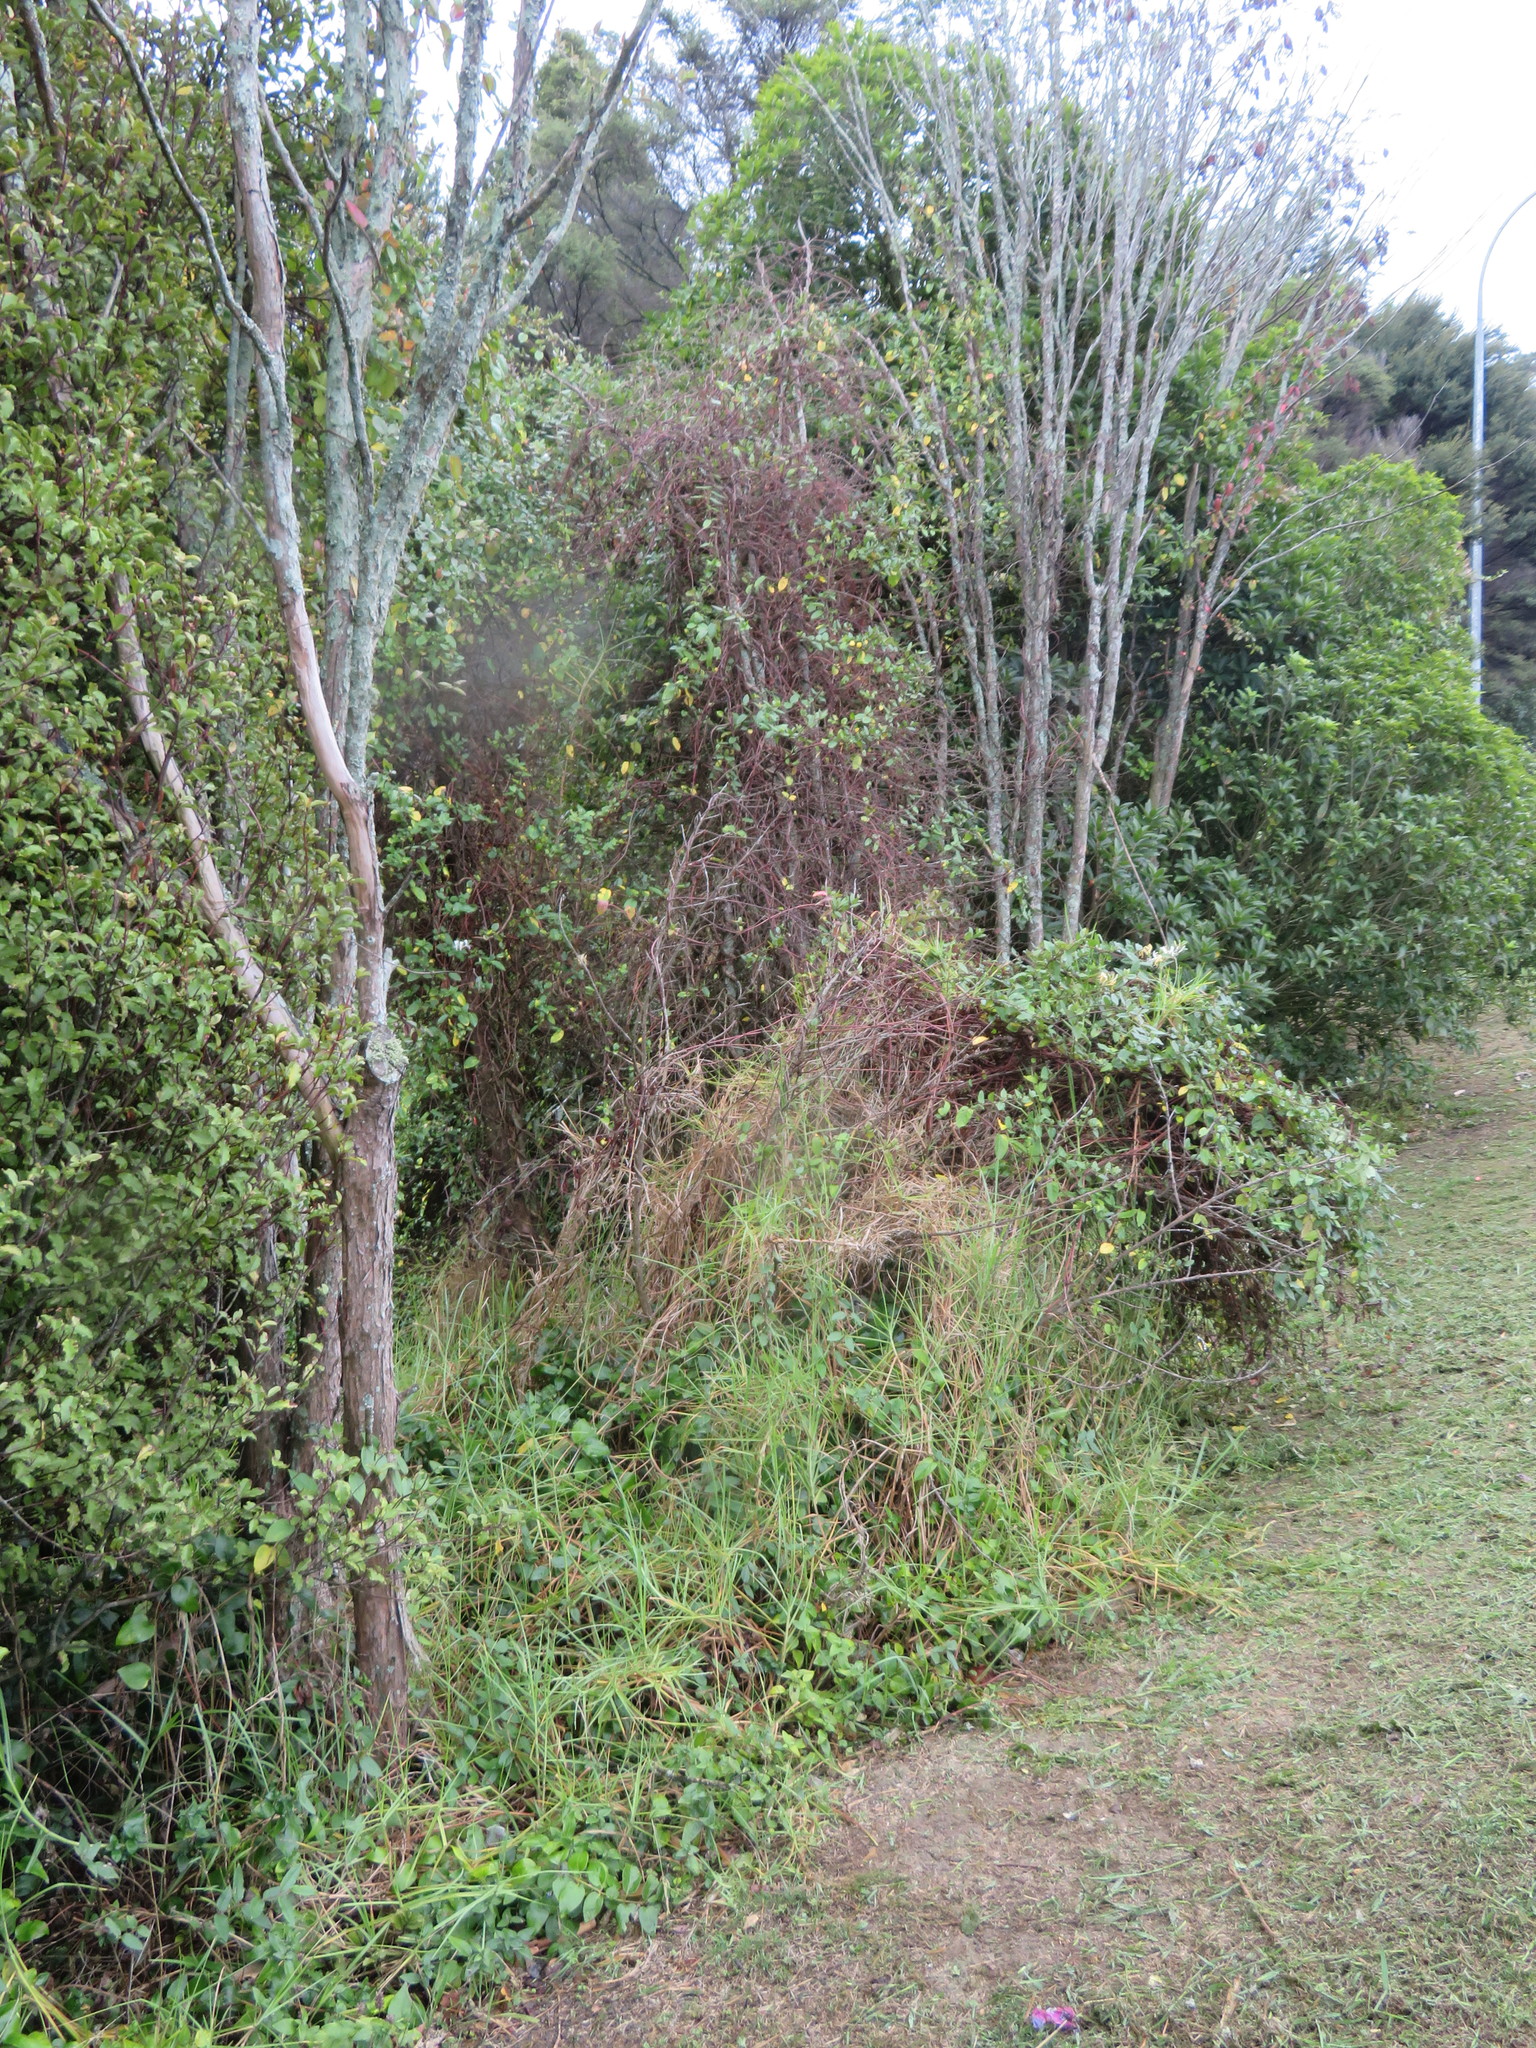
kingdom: Plantae
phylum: Tracheophyta
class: Liliopsida
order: Poales
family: Poaceae
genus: Cenchrus
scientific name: Cenchrus clandestinus
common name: Kikuyugrass
